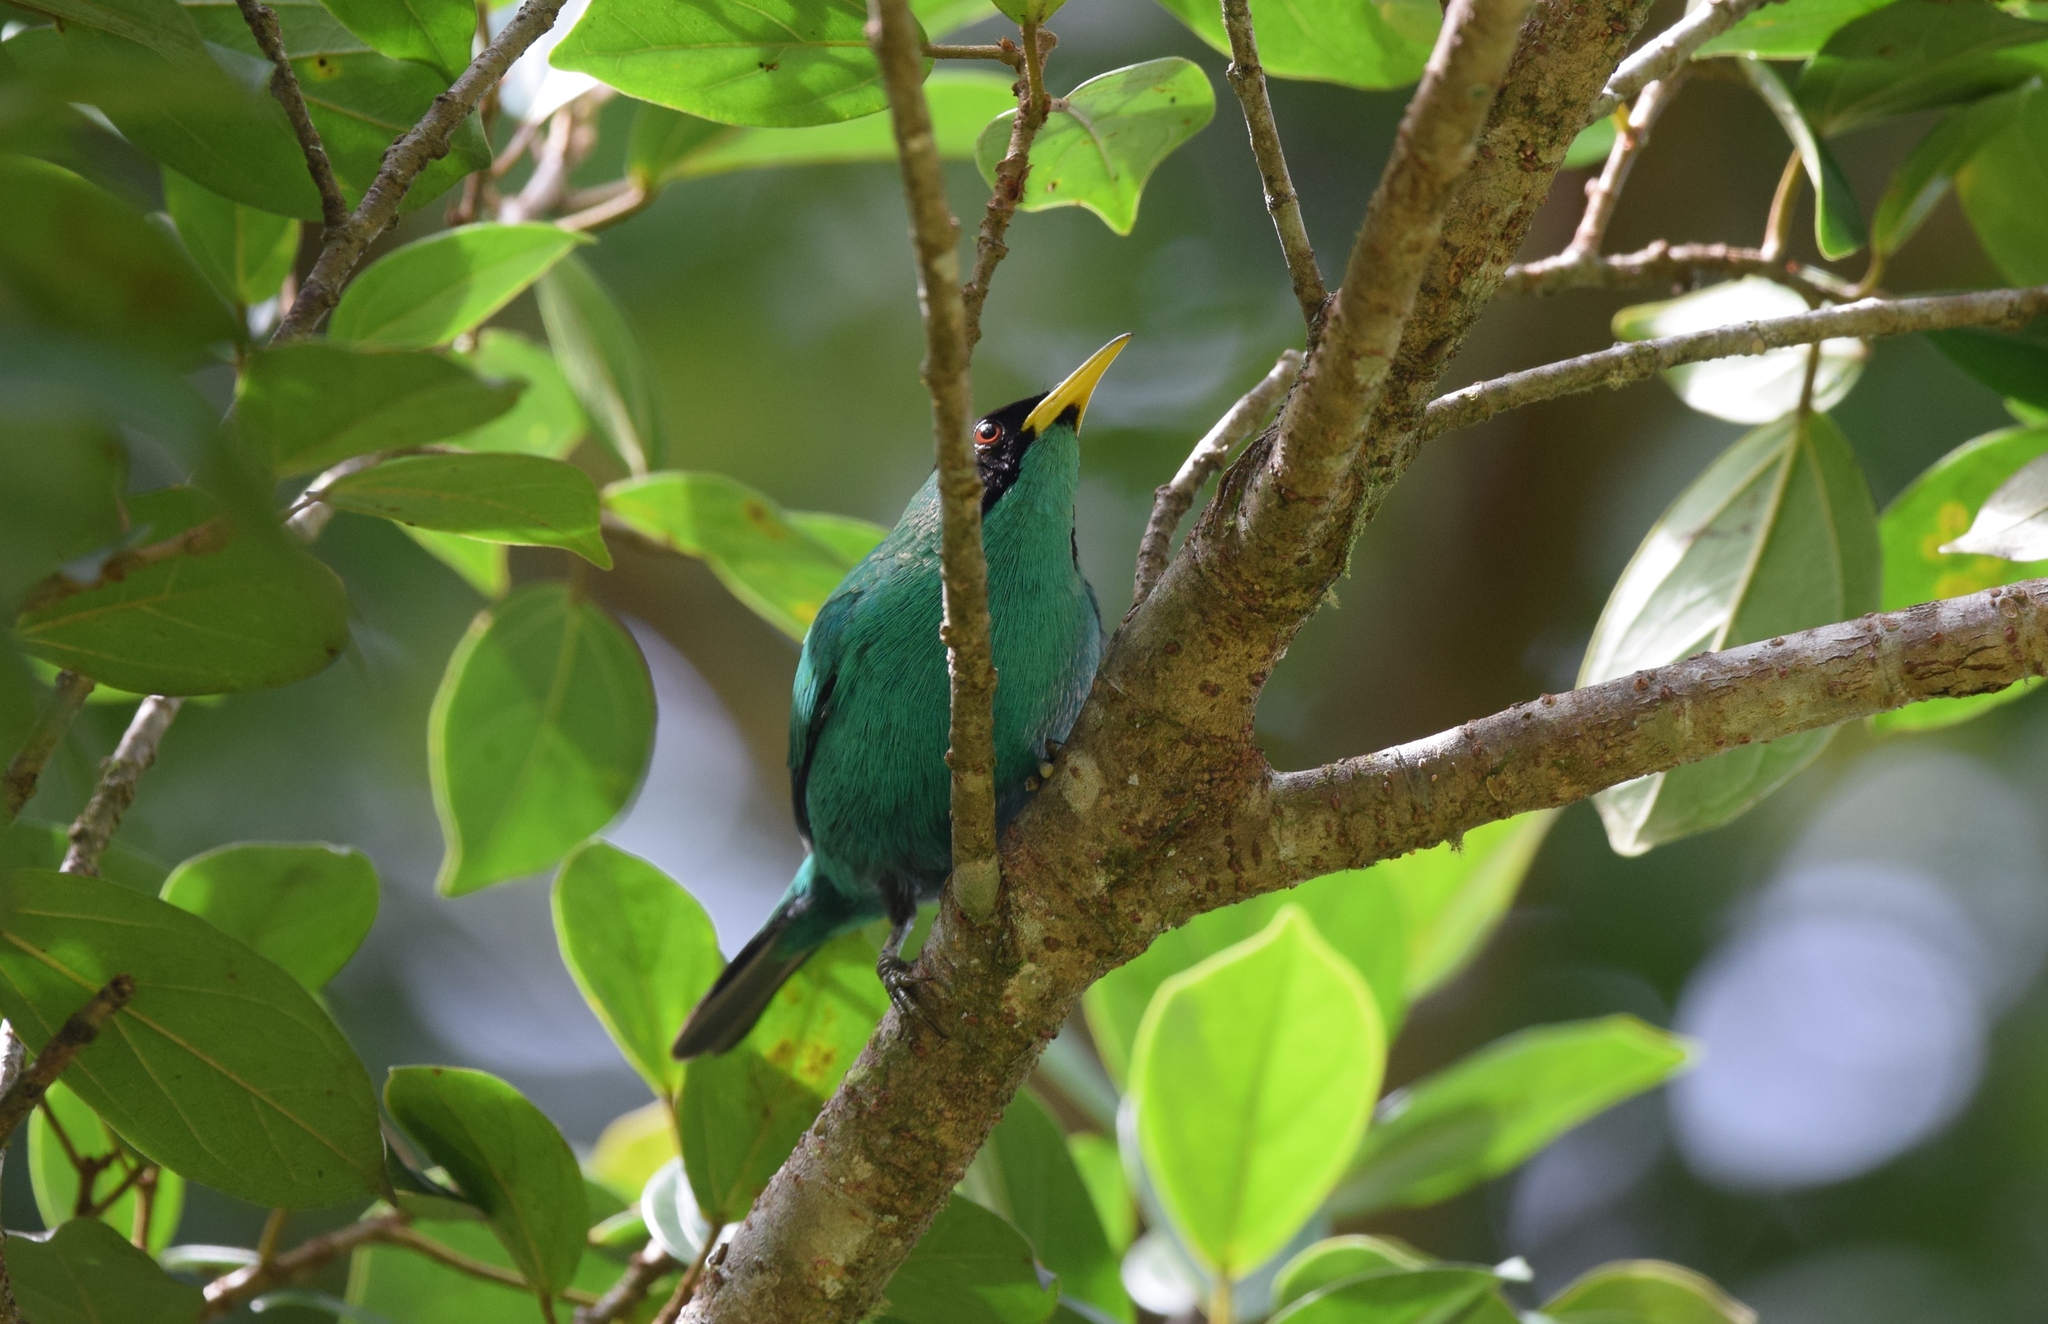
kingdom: Animalia
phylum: Chordata
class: Aves
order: Passeriformes
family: Thraupidae
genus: Chlorophanes
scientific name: Chlorophanes spiza
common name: Green honeycreeper
